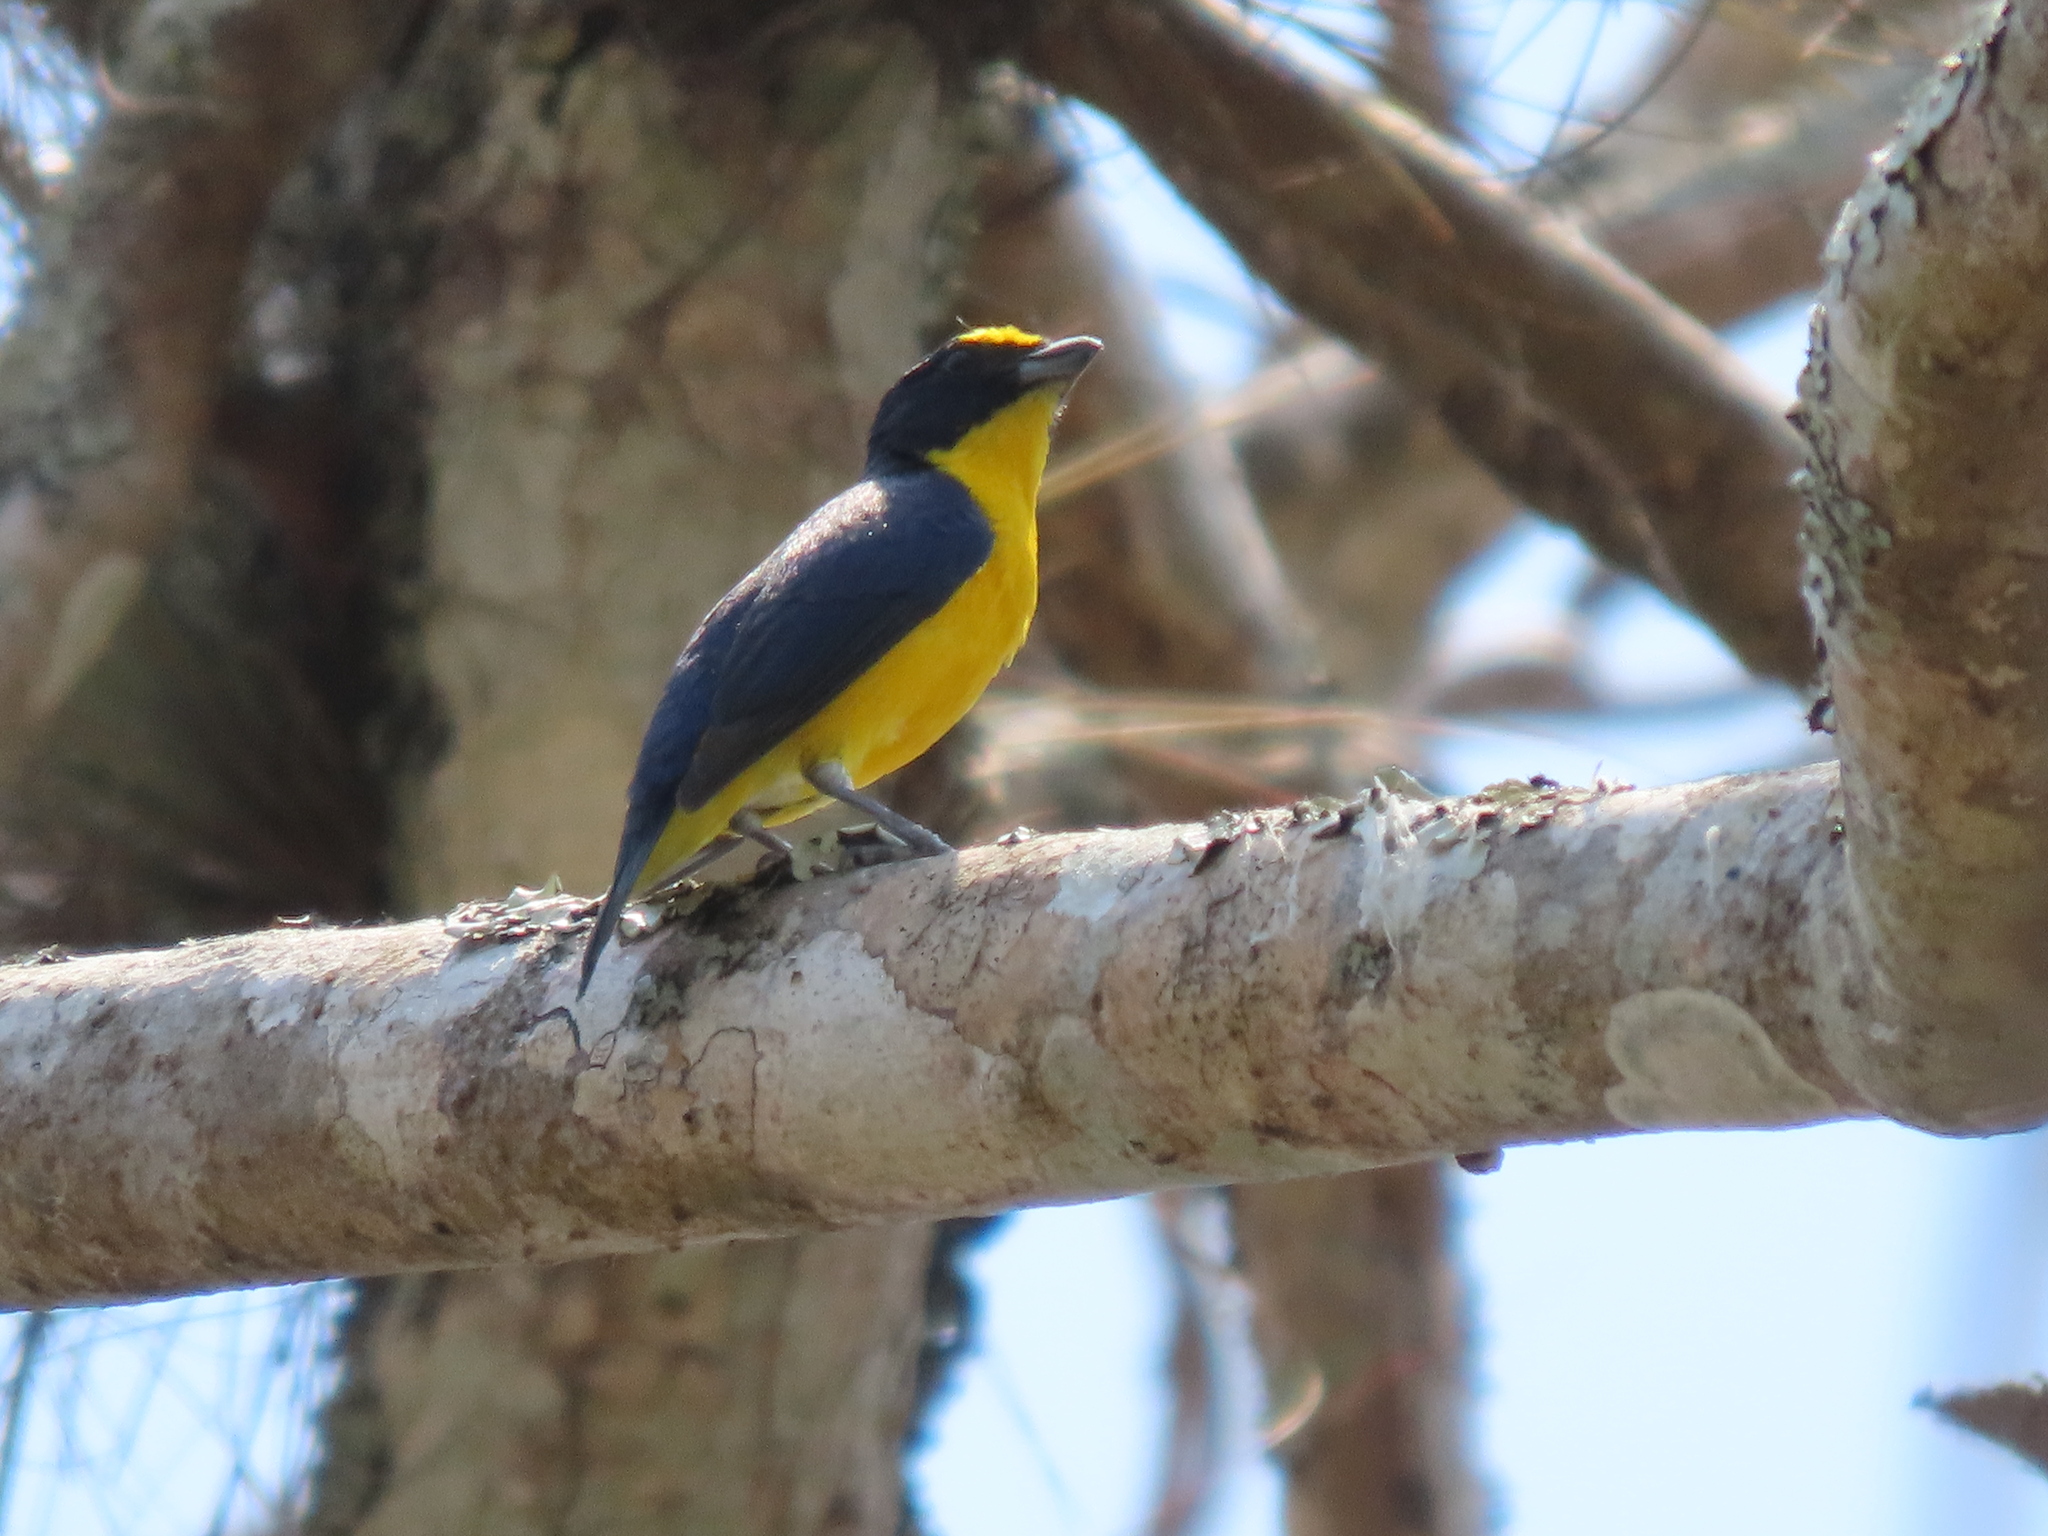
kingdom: Animalia
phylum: Chordata
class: Aves
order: Passeriformes
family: Fringillidae
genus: Euphonia
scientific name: Euphonia hirundinacea
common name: Yellow-throated euphonia
